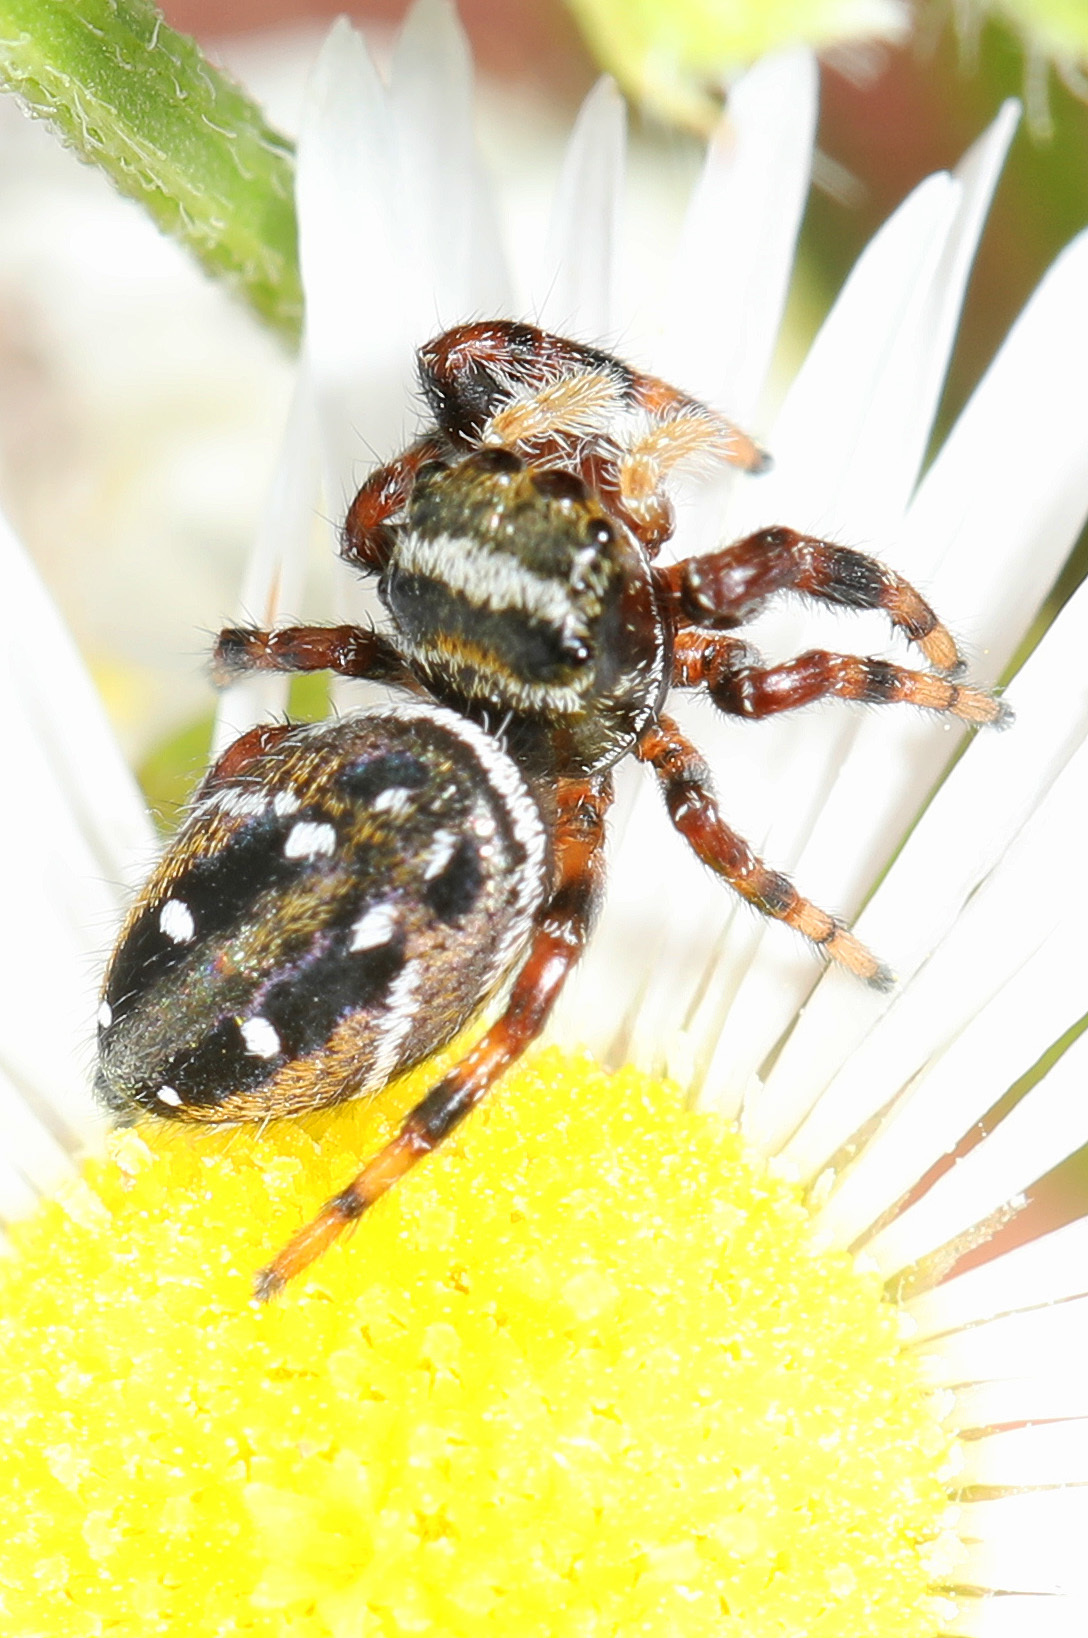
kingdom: Animalia
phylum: Arthropoda
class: Arachnida
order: Araneae
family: Salticidae
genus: Phidippus
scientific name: Phidippus clarus
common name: Brilliant jumping spider
